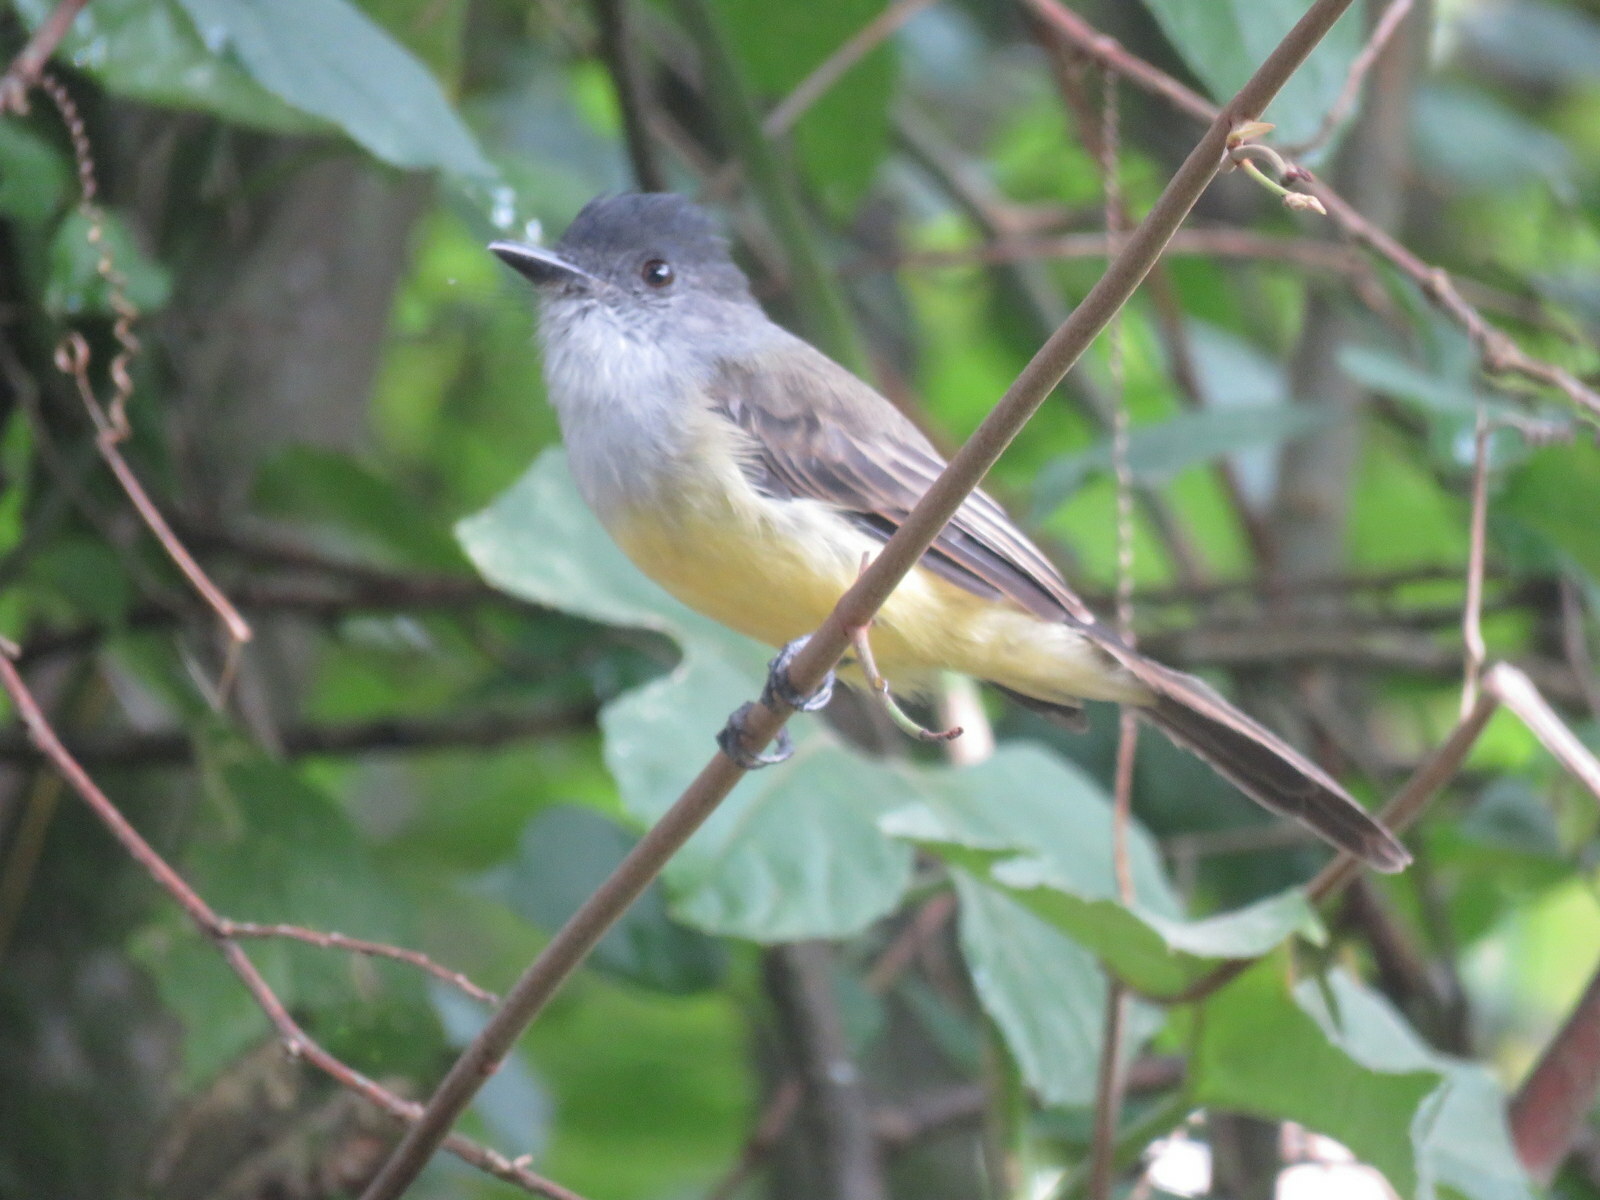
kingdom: Animalia
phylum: Chordata
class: Aves
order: Passeriformes
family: Tyrannidae
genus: Myiarchus
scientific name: Myiarchus tuberculifer
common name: Dusky-capped flycatcher
